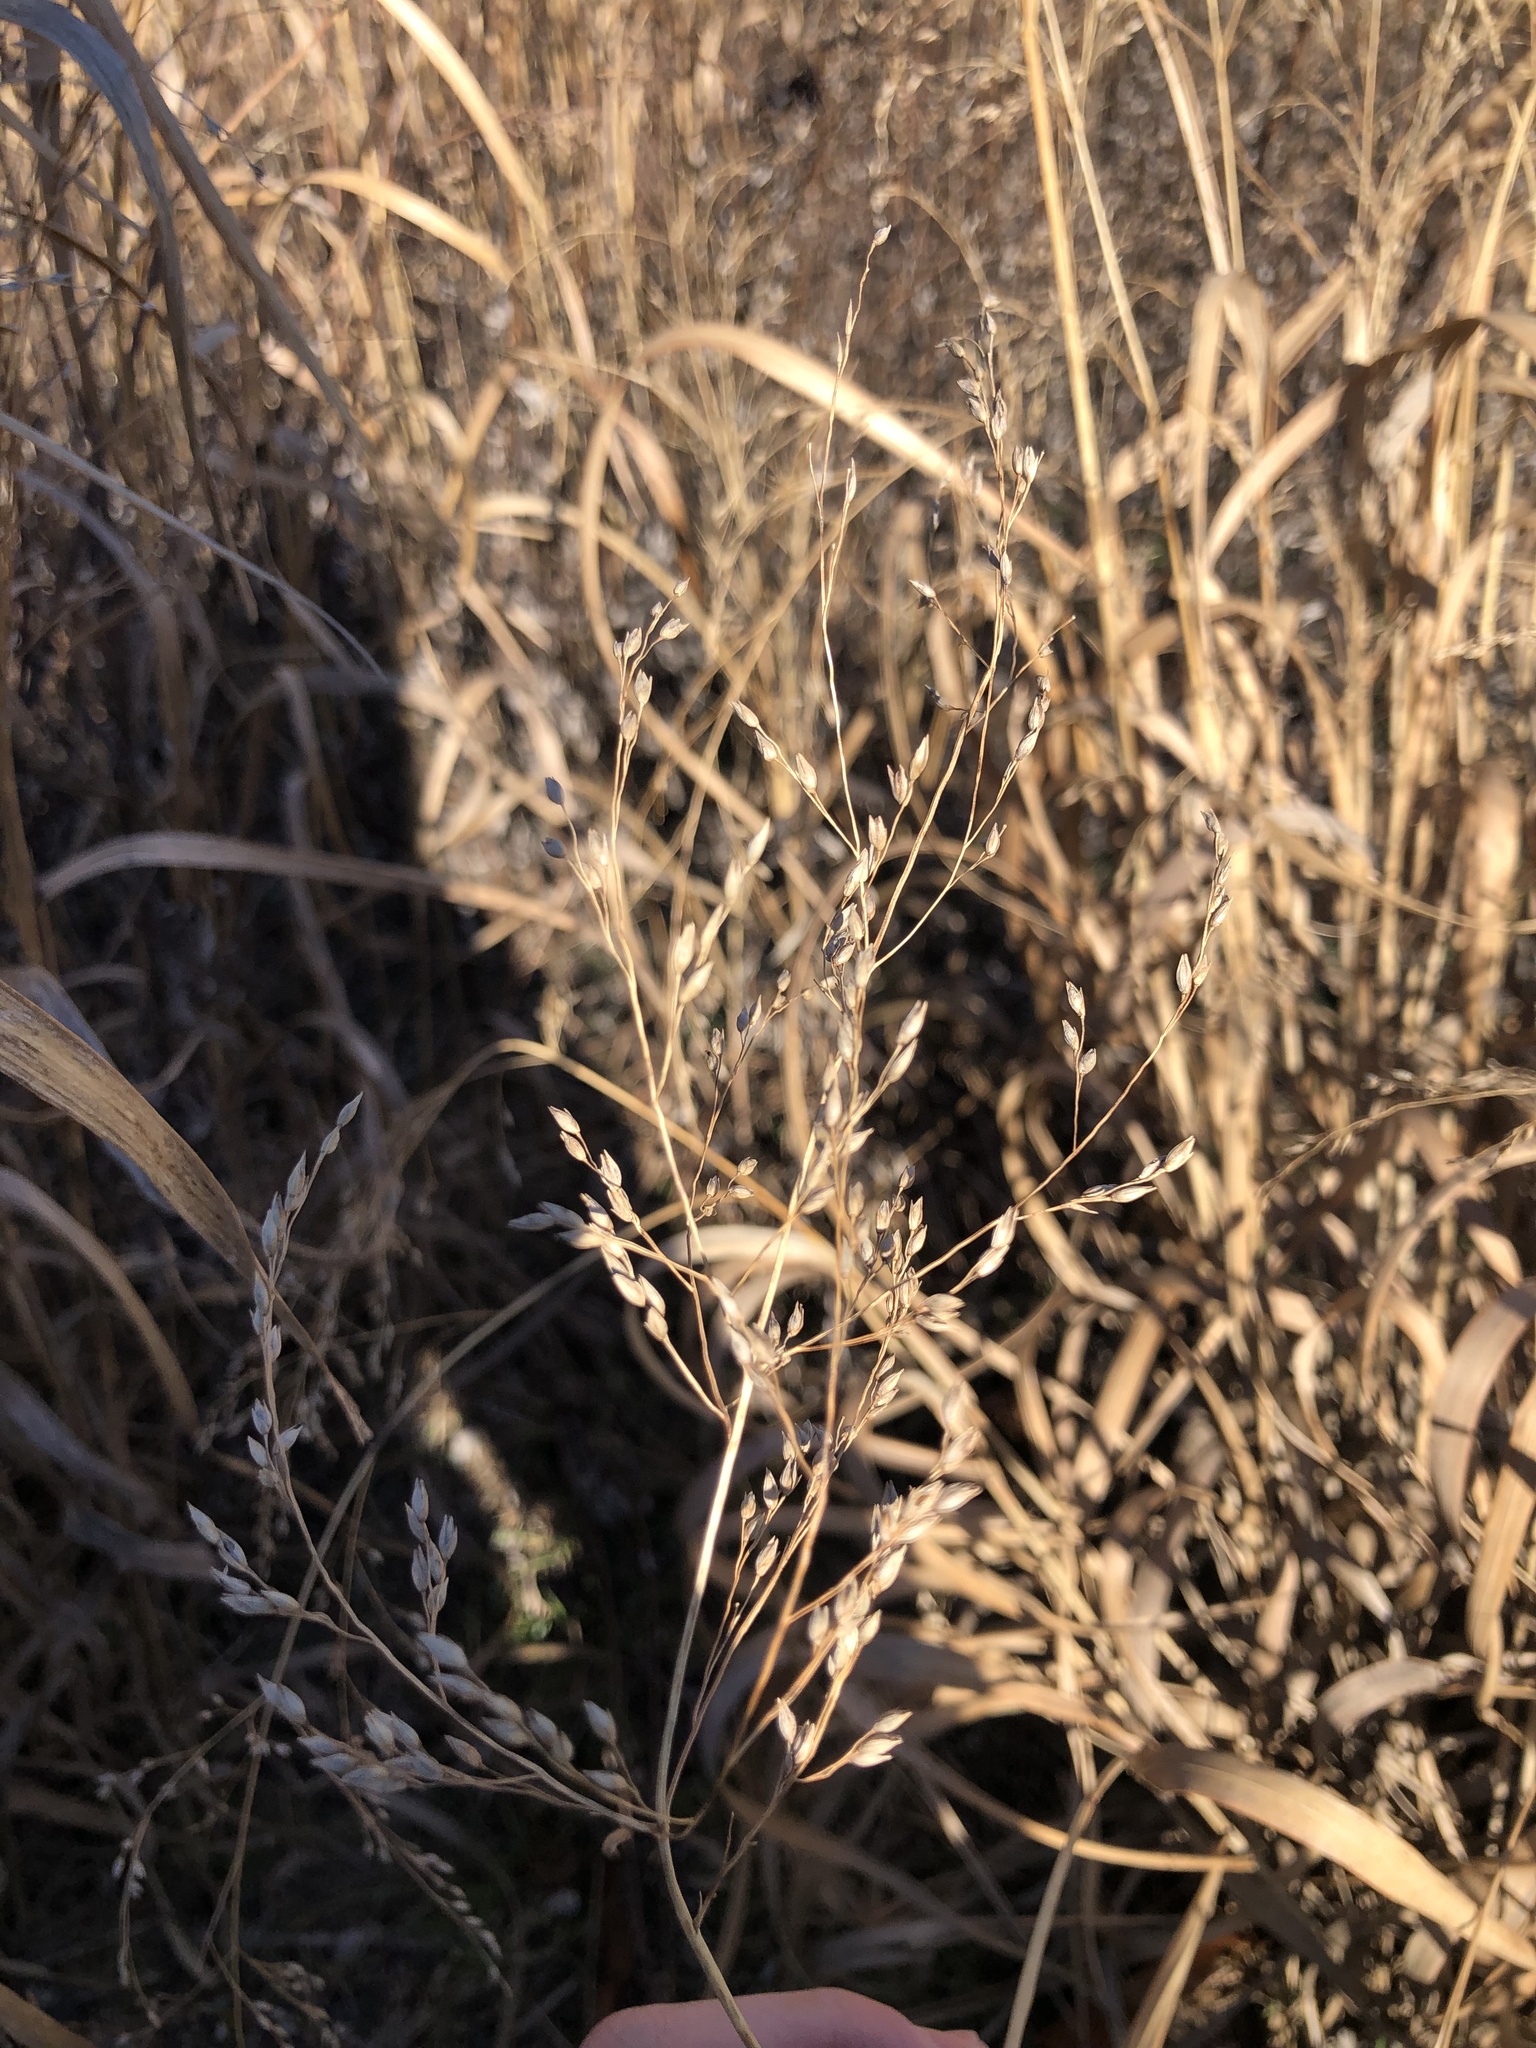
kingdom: Plantae
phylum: Tracheophyta
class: Liliopsida
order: Poales
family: Poaceae
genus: Panicum
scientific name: Panicum virgatum
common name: Switchgrass
